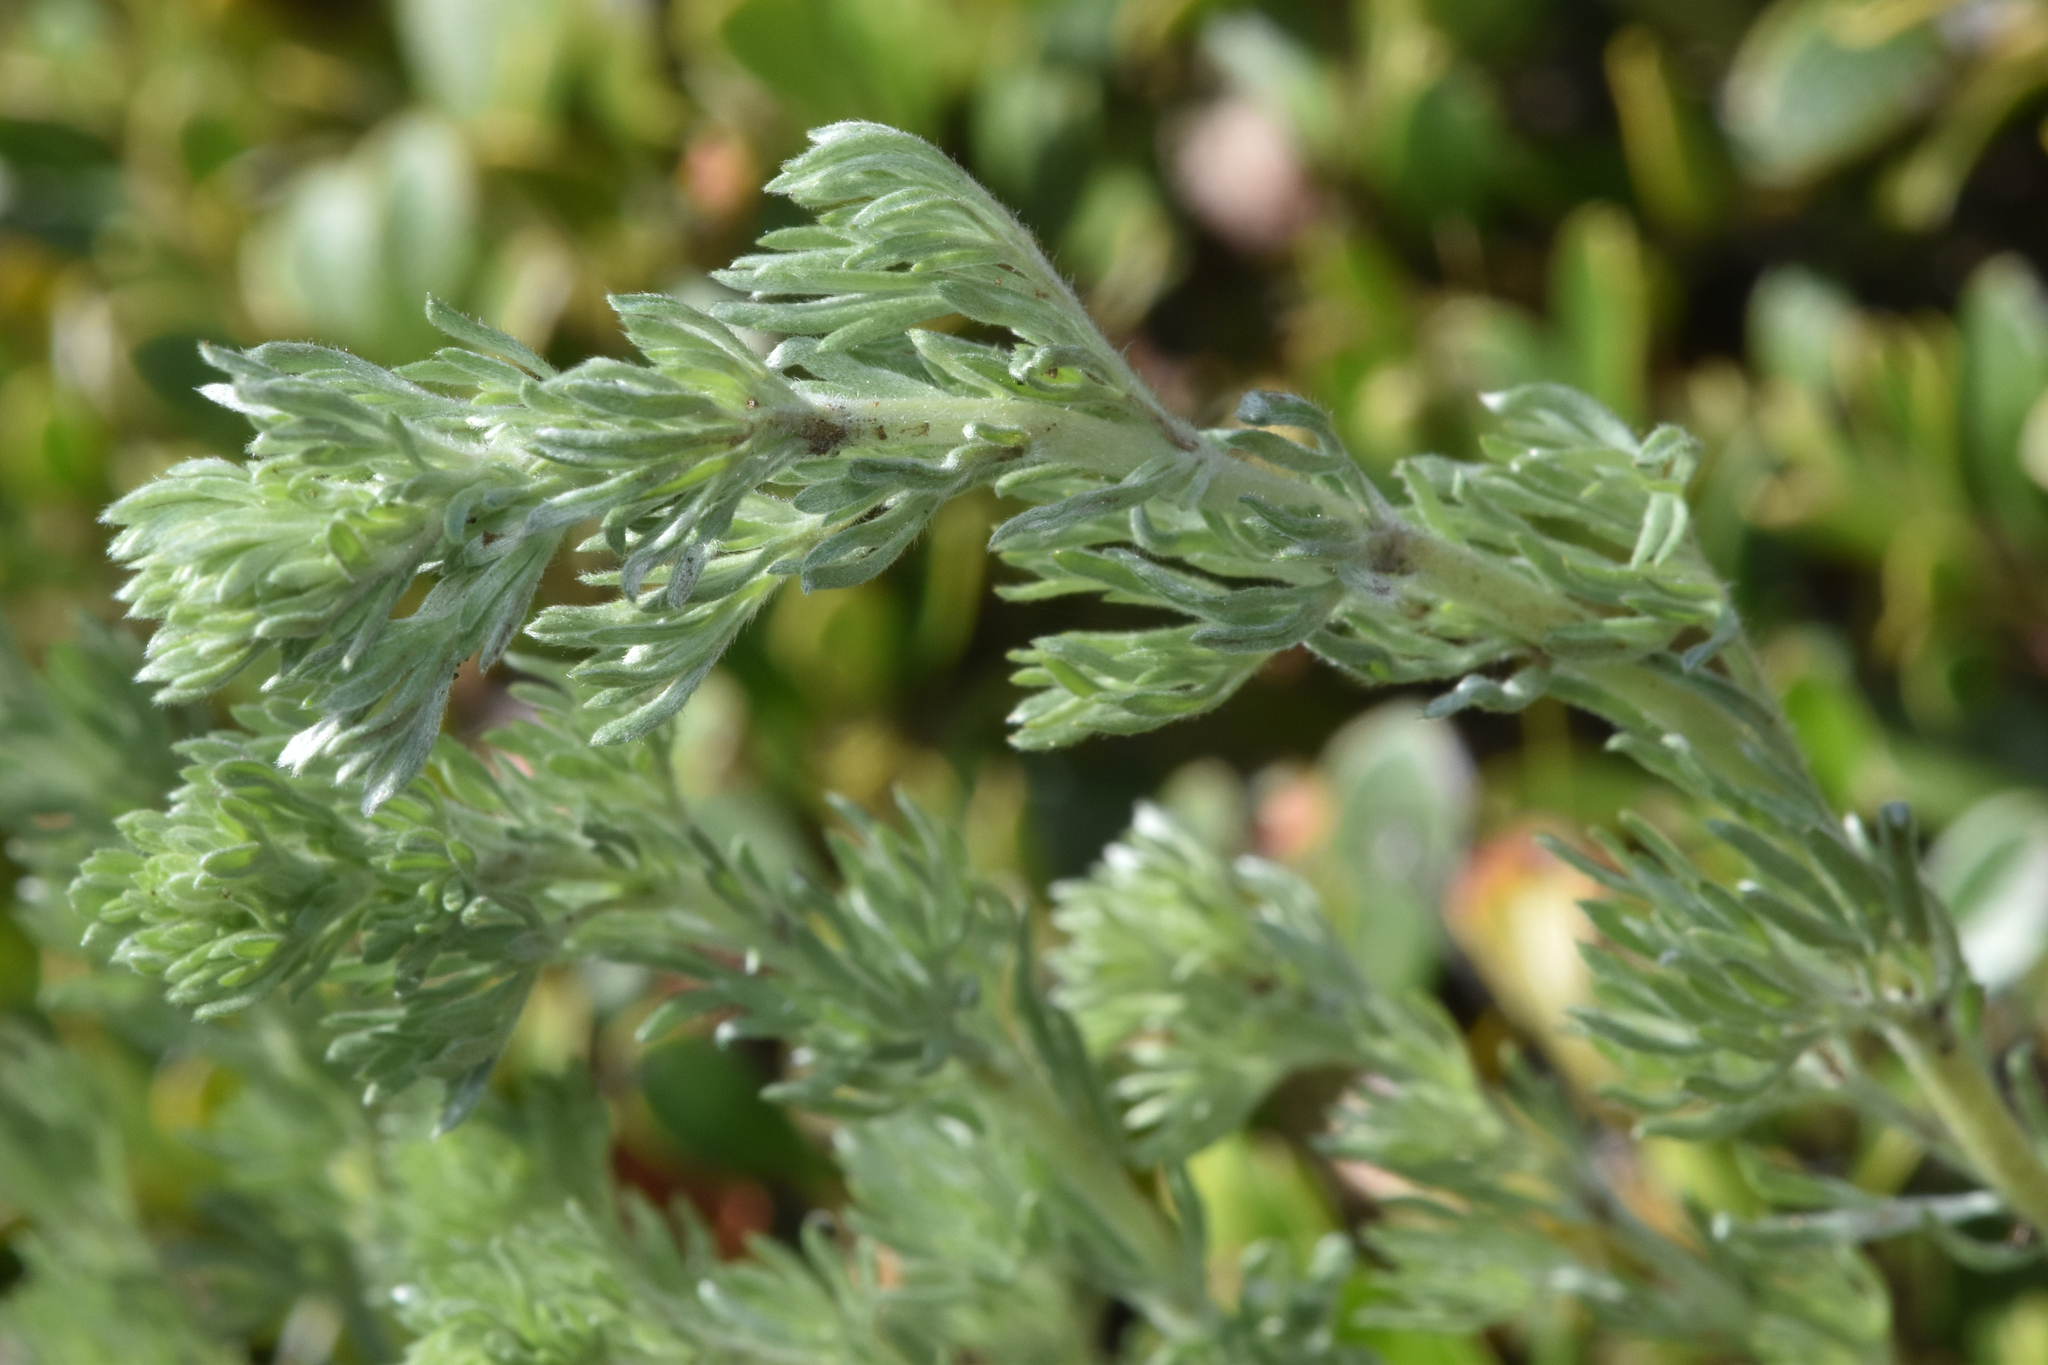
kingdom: Plantae
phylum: Tracheophyta
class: Magnoliopsida
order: Asterales
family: Asteraceae
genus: Artemisia
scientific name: Artemisia frigida
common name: Prairie sagewort
